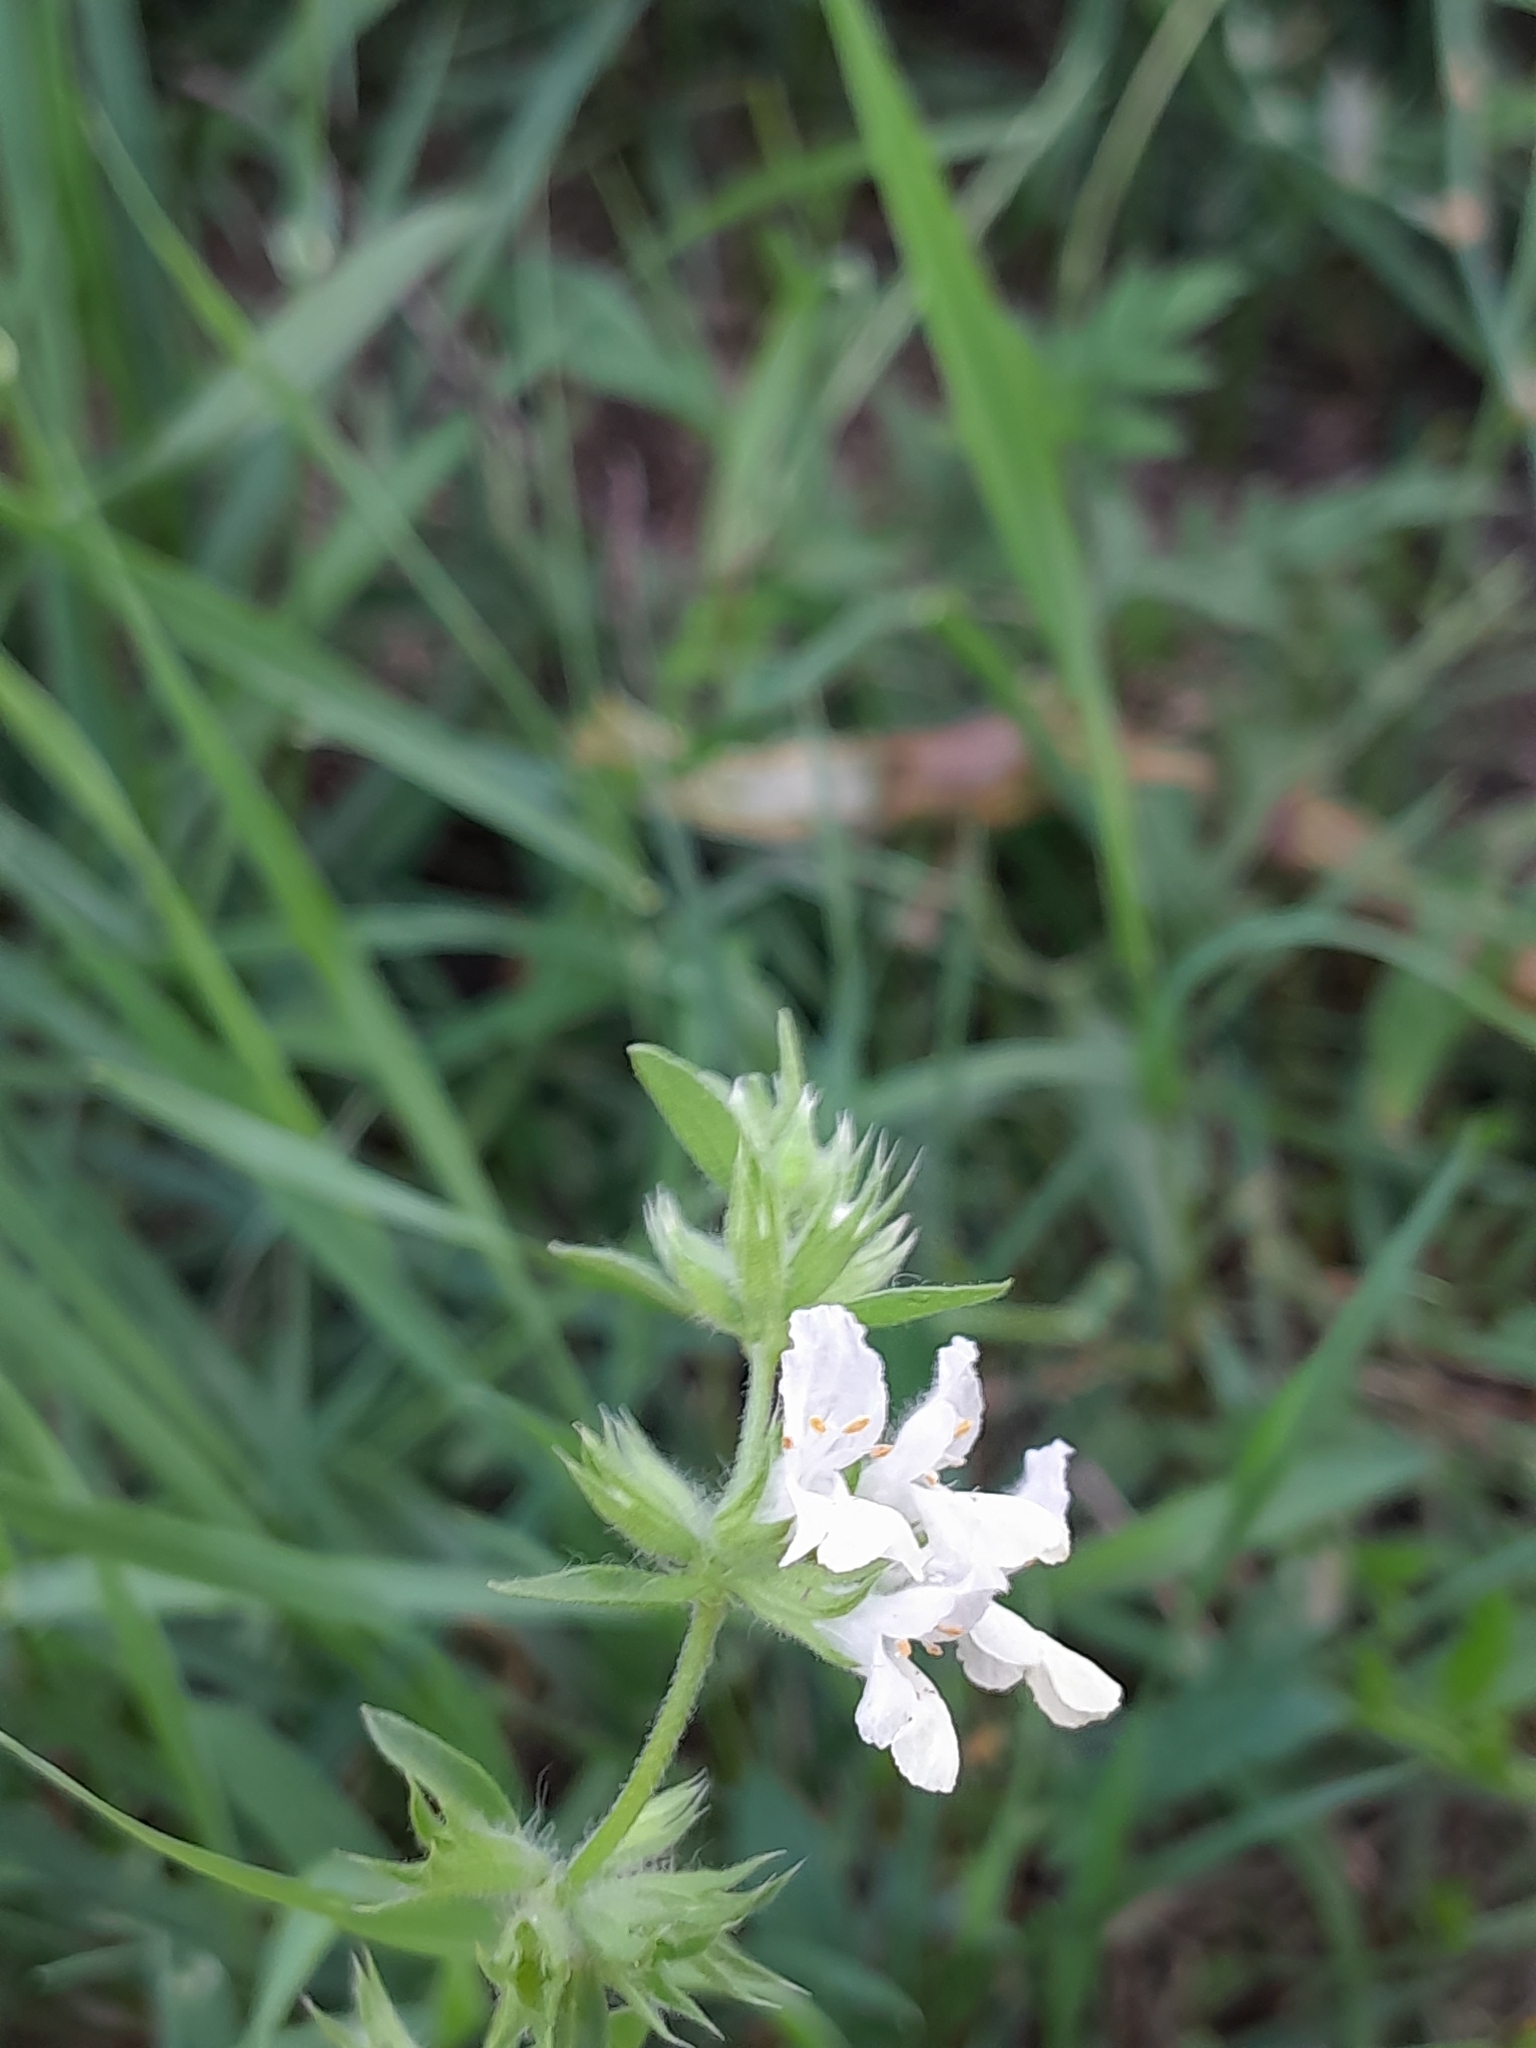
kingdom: Plantae
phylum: Tracheophyta
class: Magnoliopsida
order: Lamiales
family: Lamiaceae
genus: Stachys
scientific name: Stachys annua
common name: Annual yellow-woundwort
